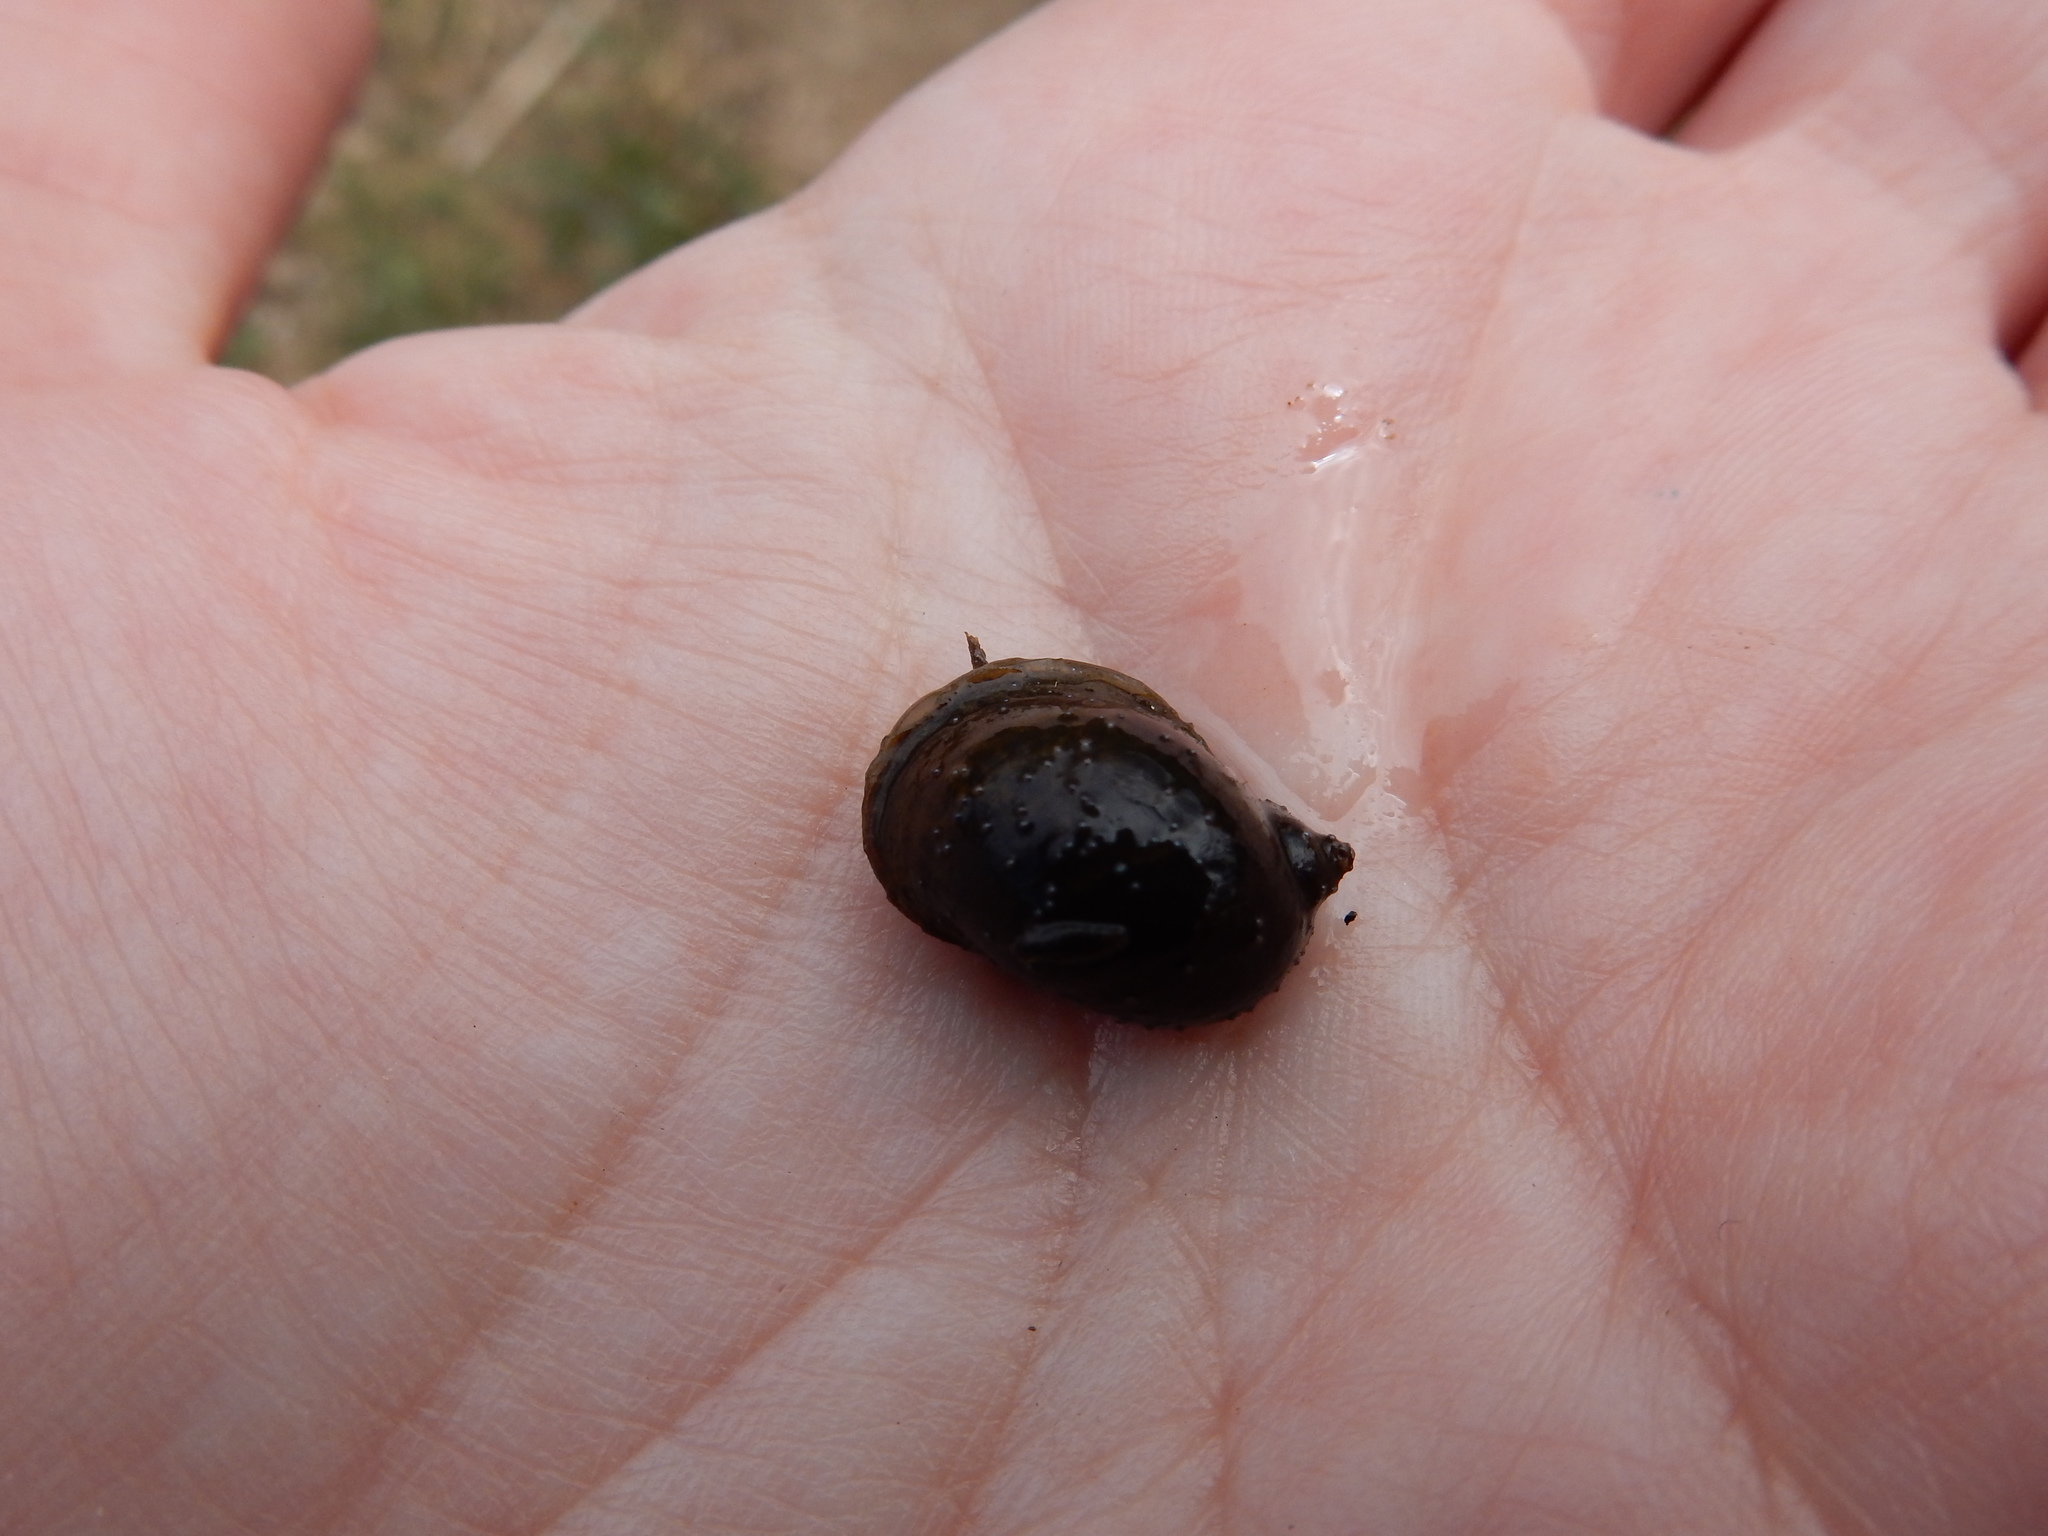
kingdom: Animalia
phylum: Mollusca
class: Gastropoda
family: Lymnaeidae
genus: Radix
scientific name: Radix auricularia
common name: Ear pond snail
